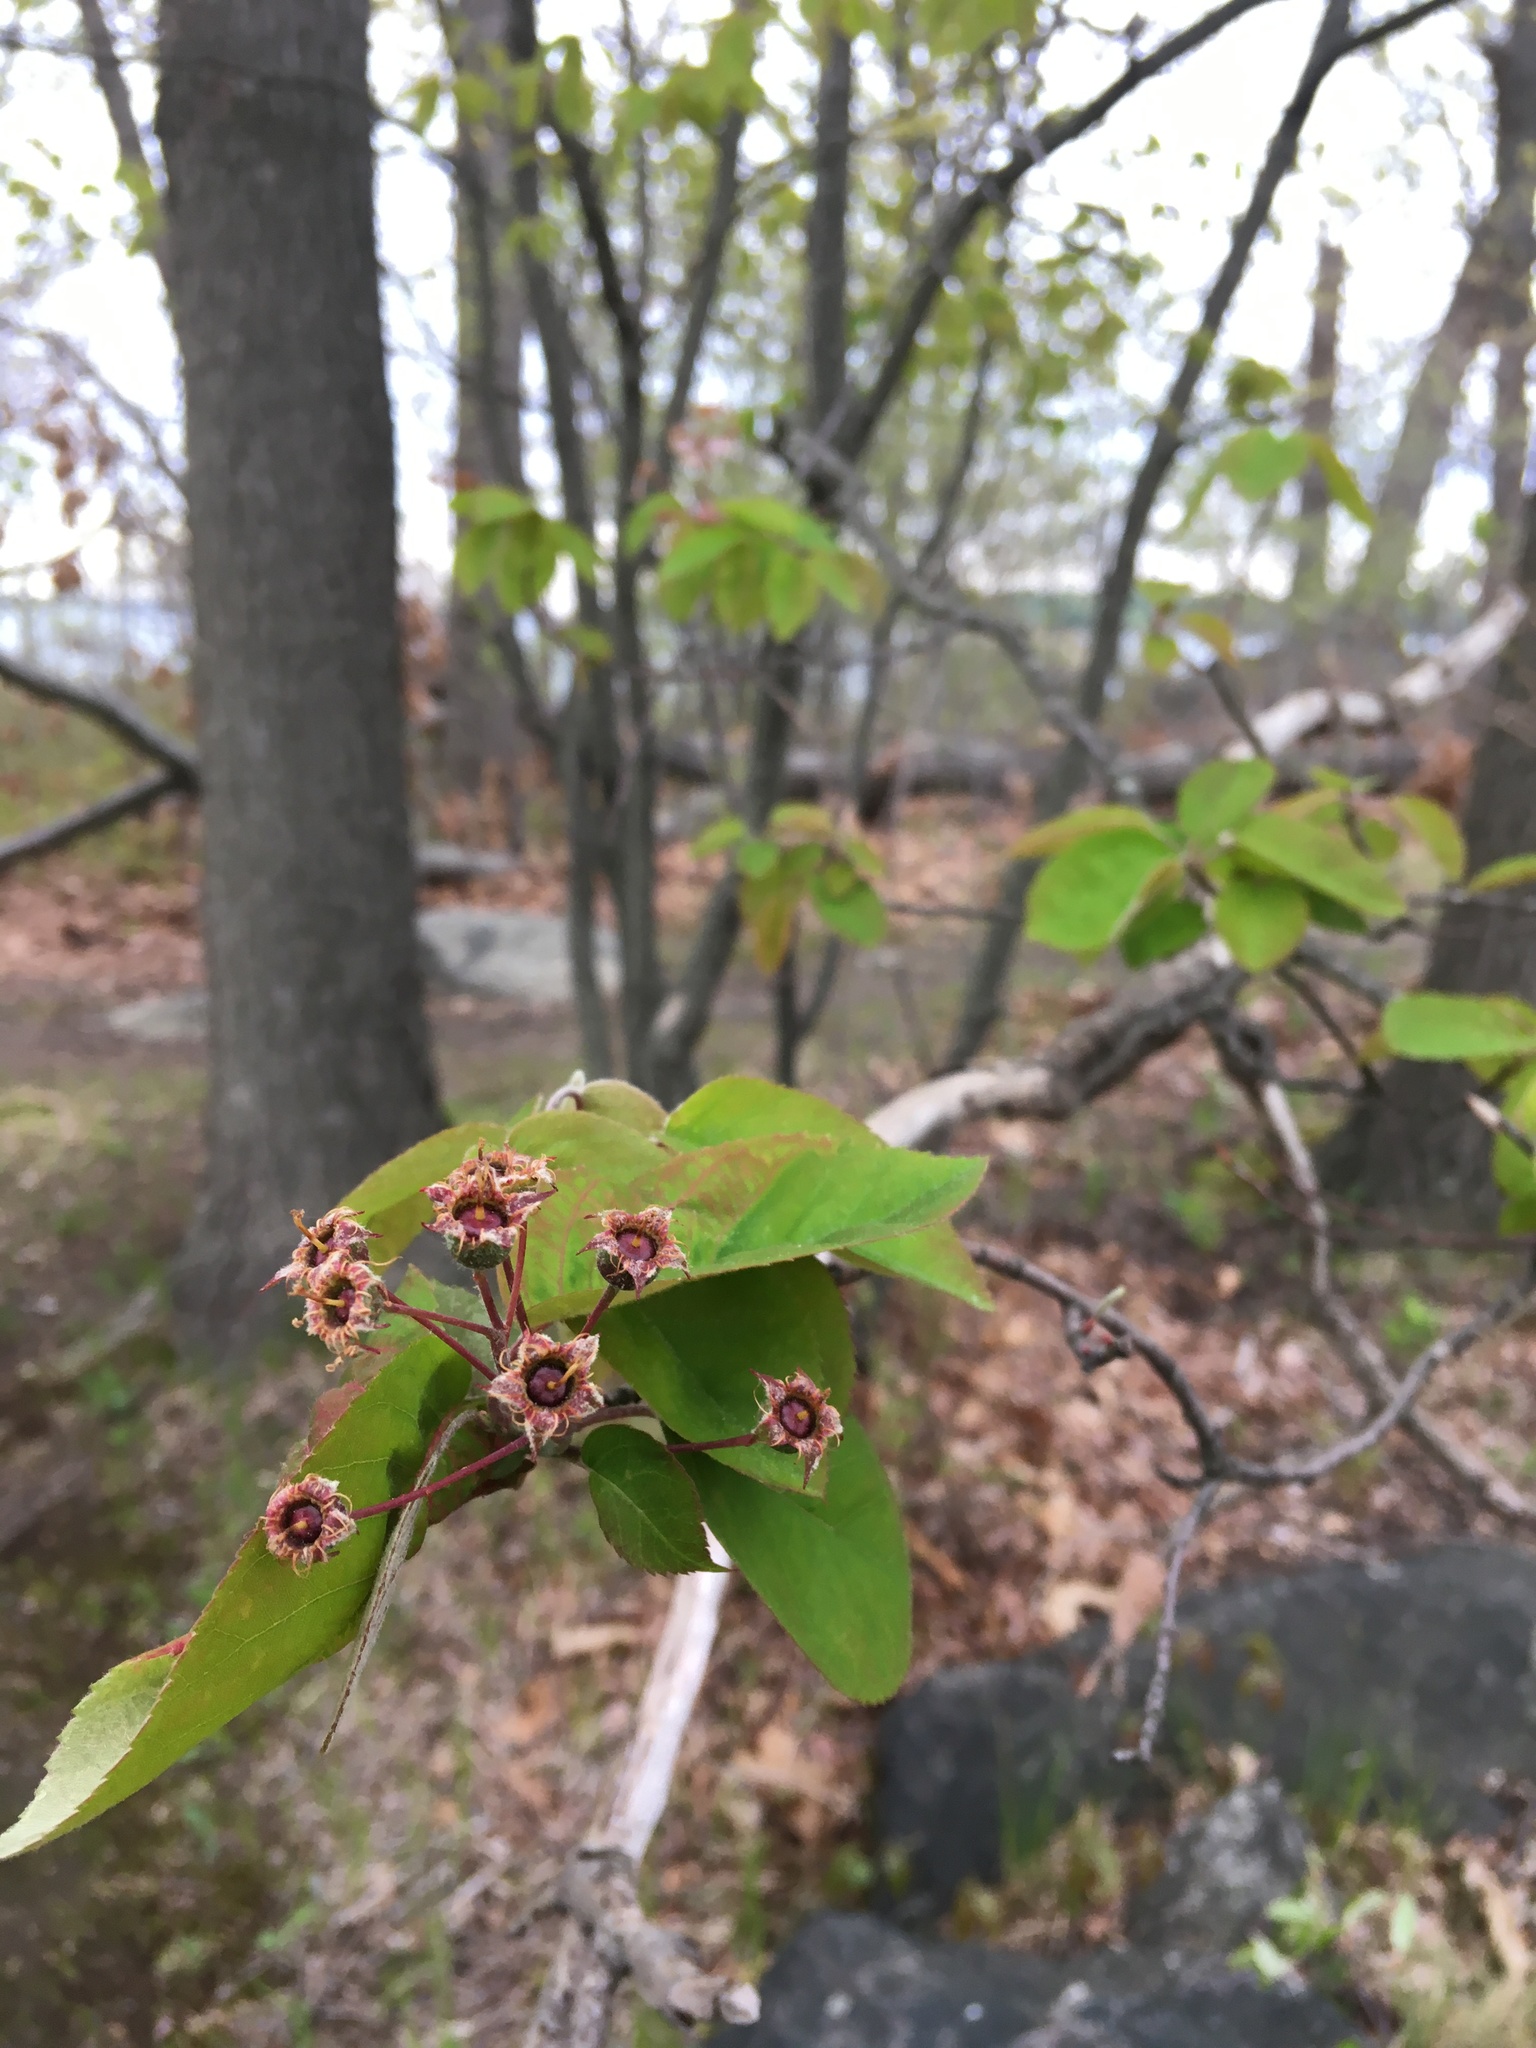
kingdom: Plantae
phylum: Tracheophyta
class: Magnoliopsida
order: Rosales
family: Rosaceae
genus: Amelanchier
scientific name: Amelanchier laevis
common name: Allegheny serviceberry
